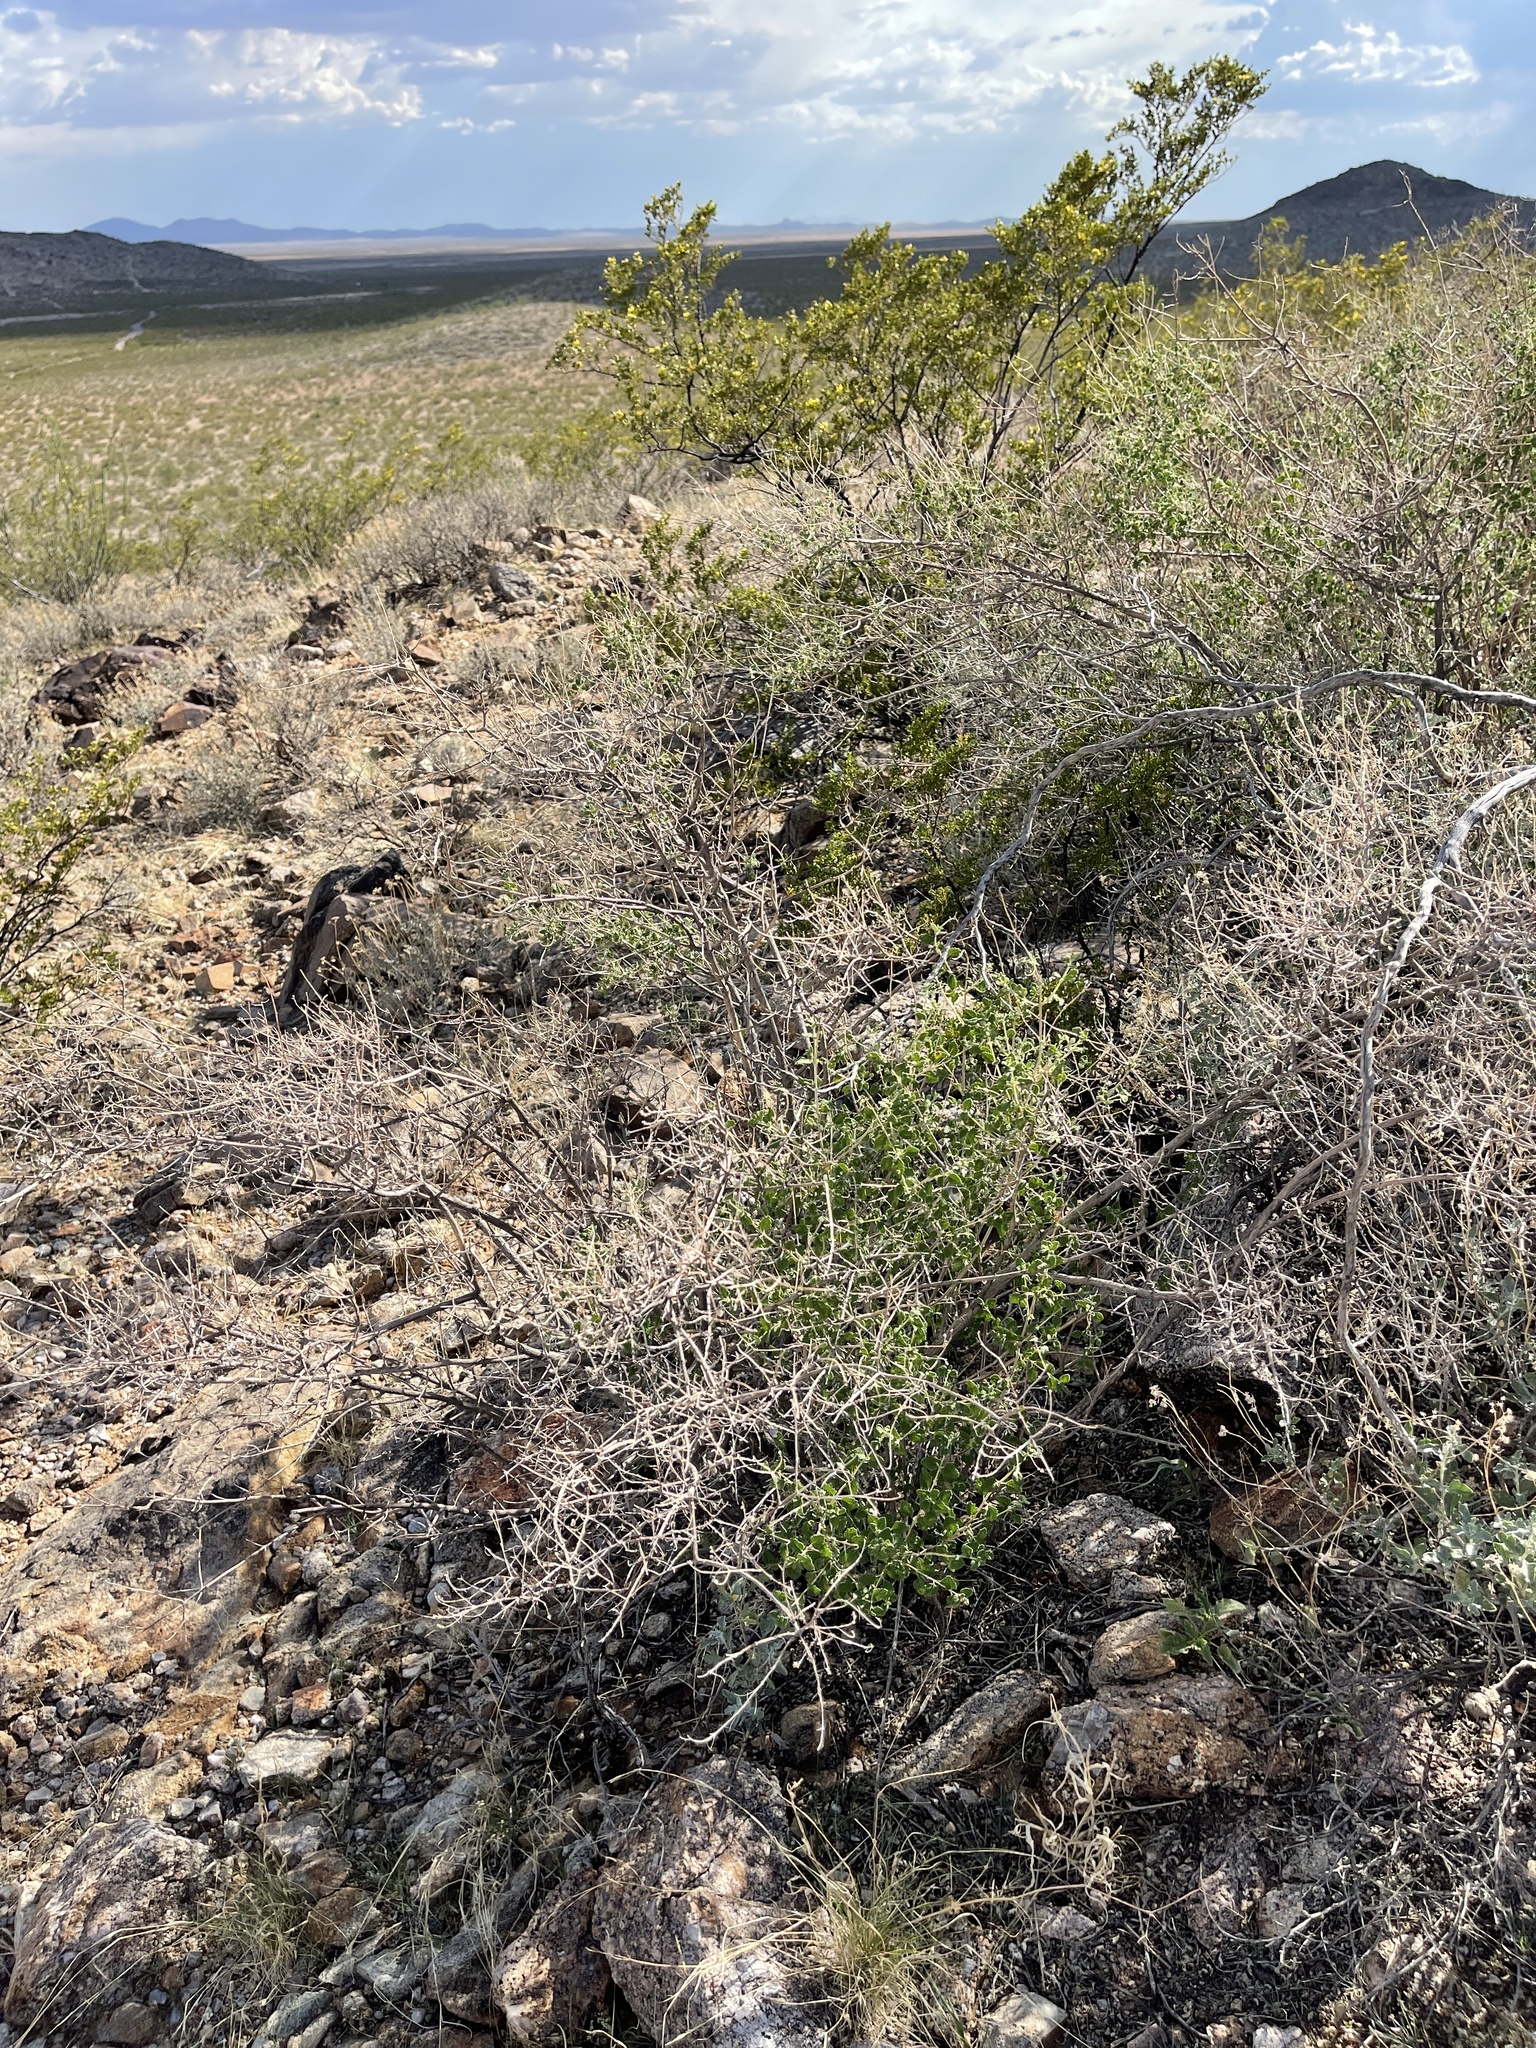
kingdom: Plantae
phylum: Tracheophyta
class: Magnoliopsida
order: Lamiales
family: Verbenaceae
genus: Aloysia
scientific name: Aloysia wrightii
